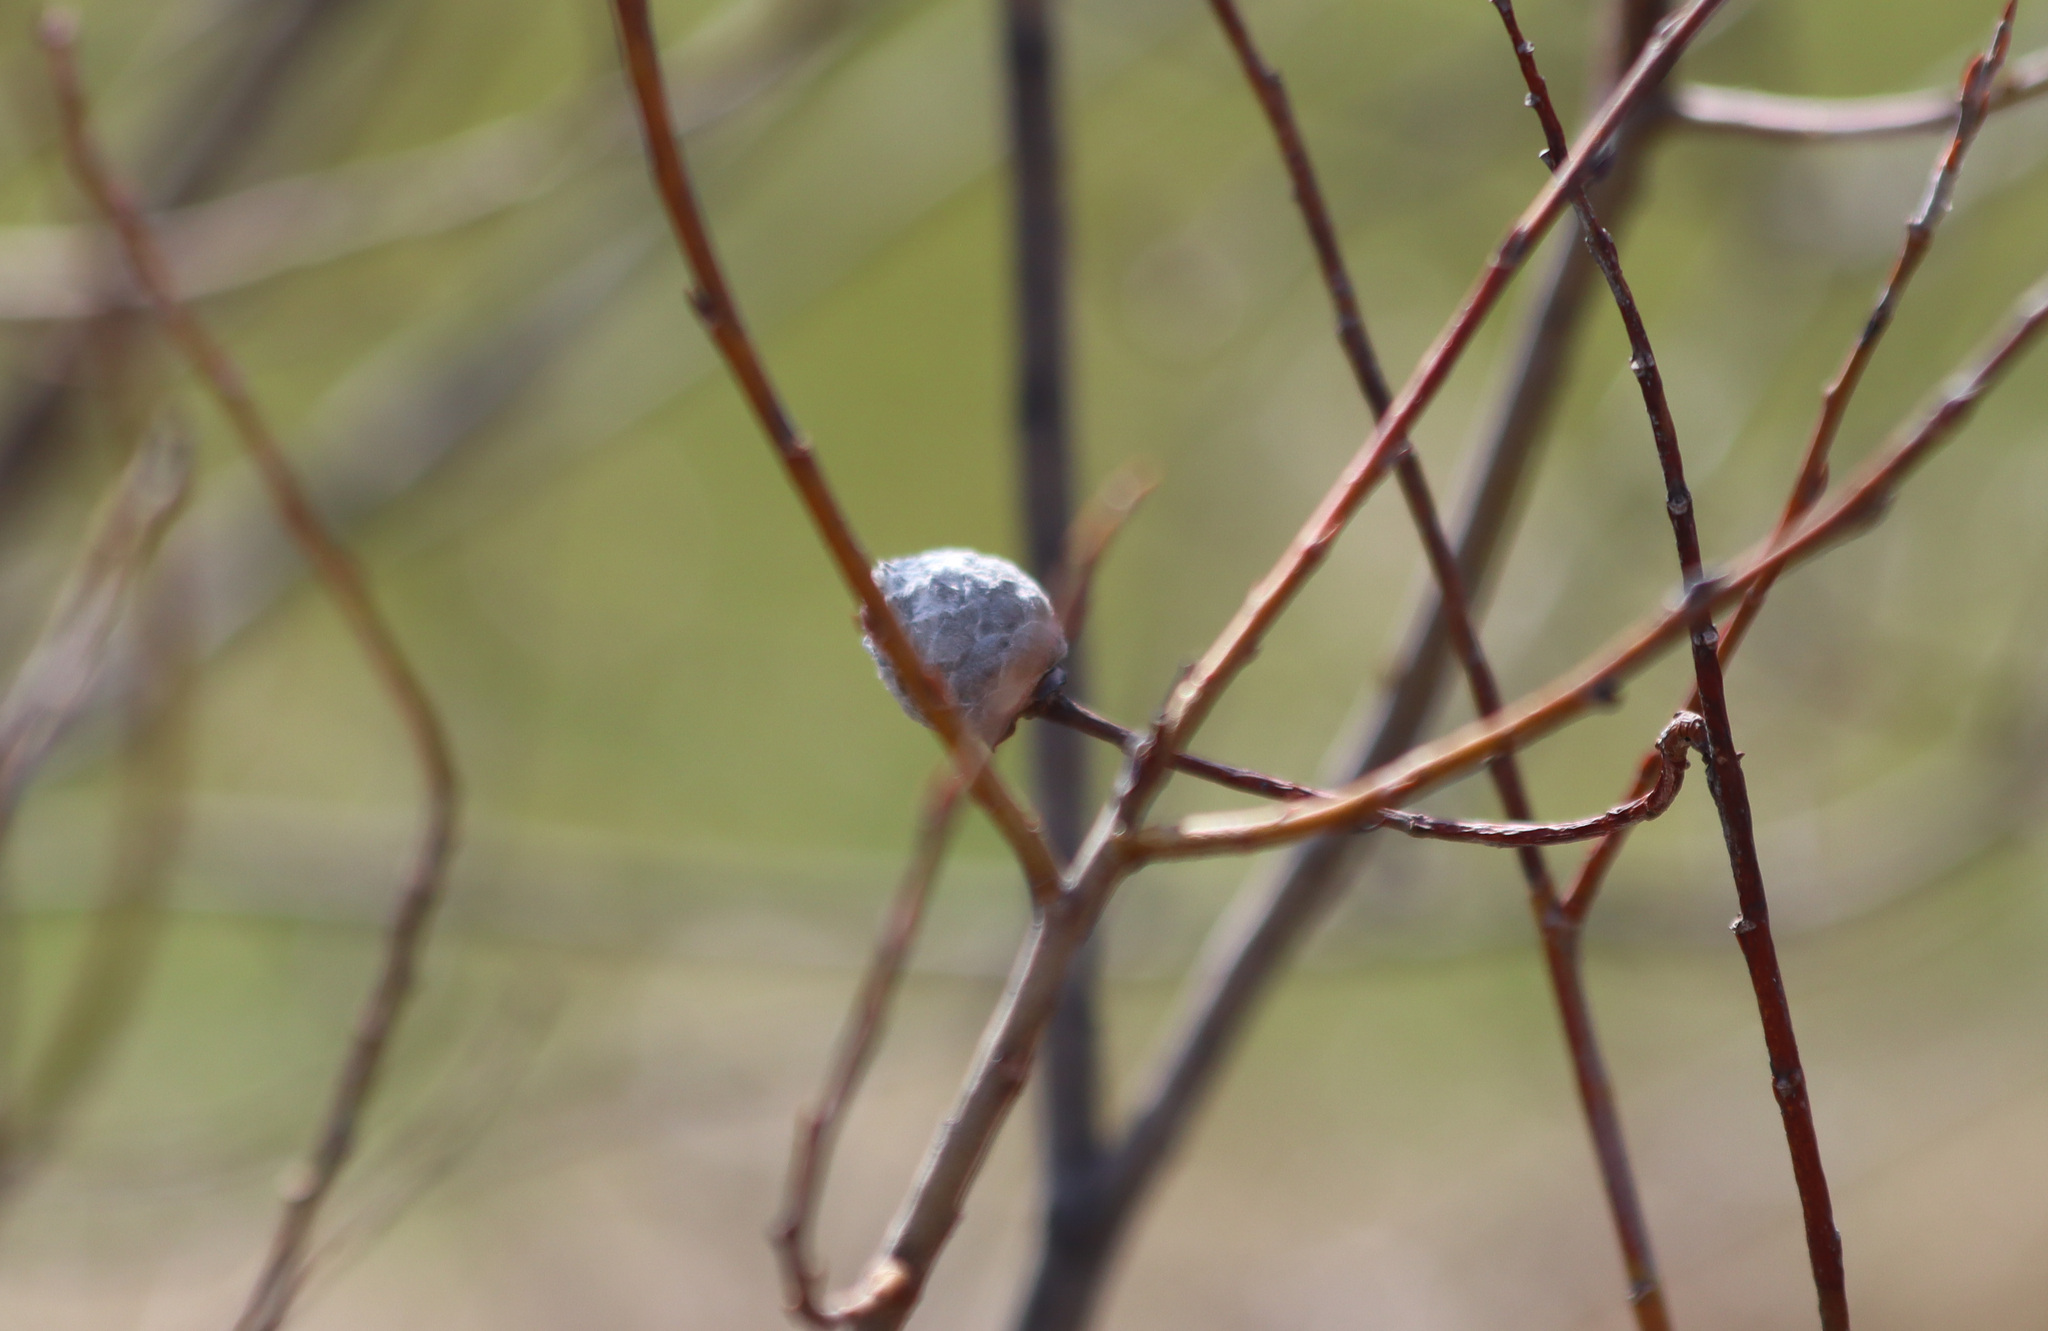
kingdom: Animalia
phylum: Arthropoda
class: Insecta
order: Diptera
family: Cecidomyiidae
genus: Rabdophaga
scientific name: Rabdophaga strobiloides
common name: Willow pinecone gall midge
